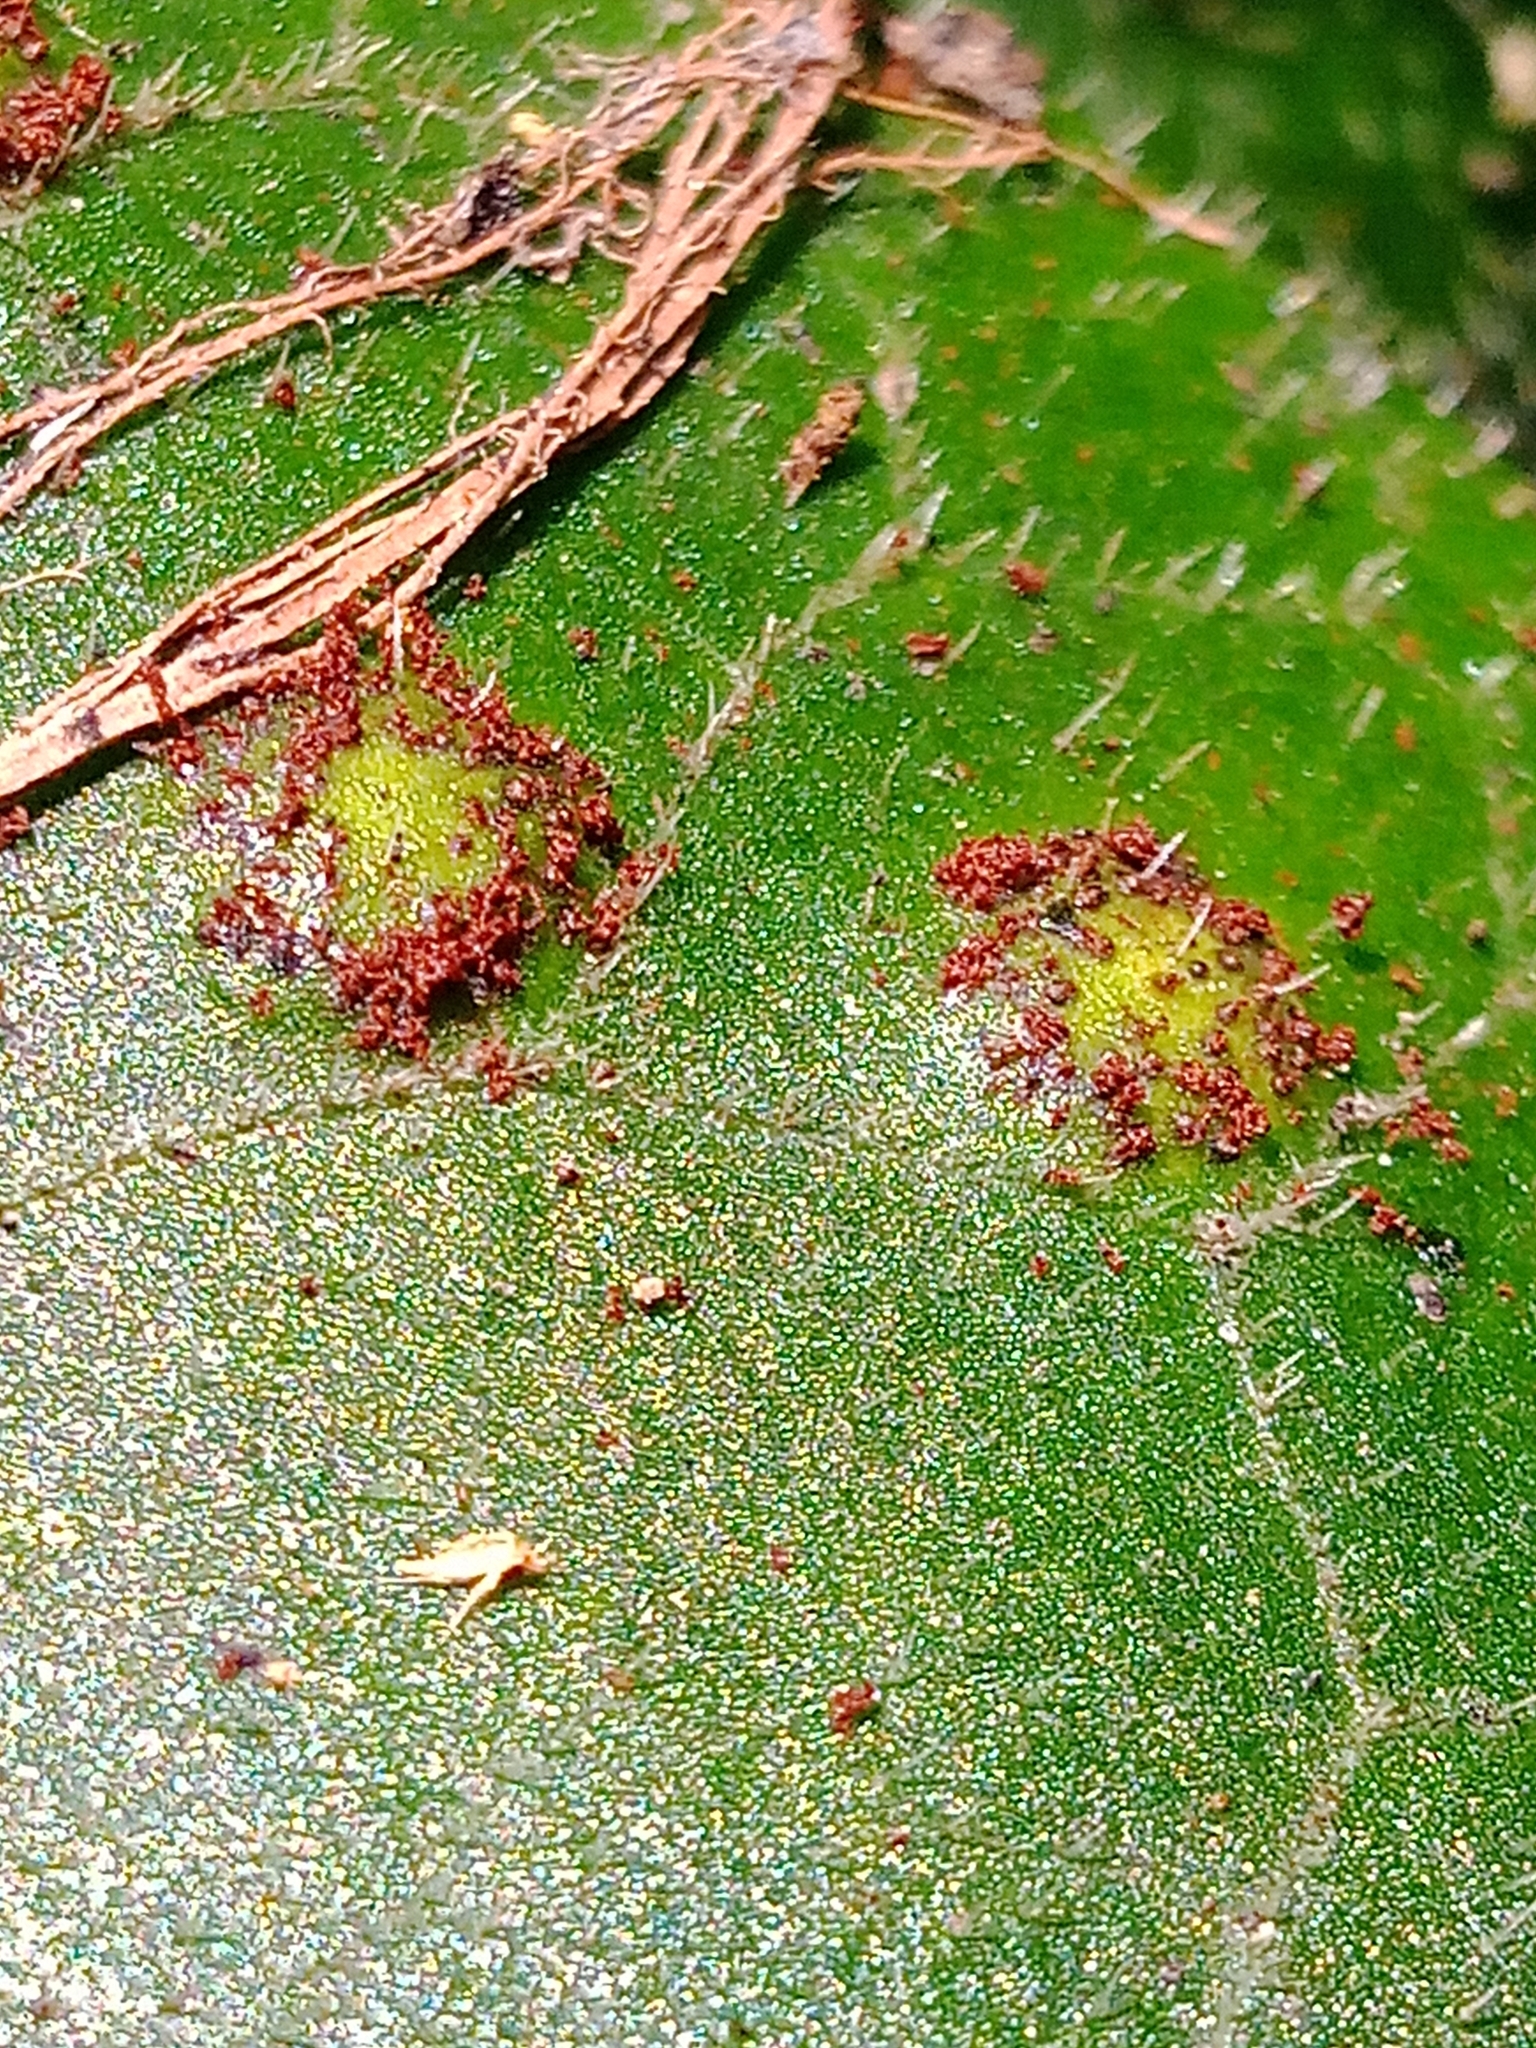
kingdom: Fungi
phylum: Basidiomycota
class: Pucciniomycetes
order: Pucciniales
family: Pucciniaceae
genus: Puccinia
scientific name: Puccinia asarina
